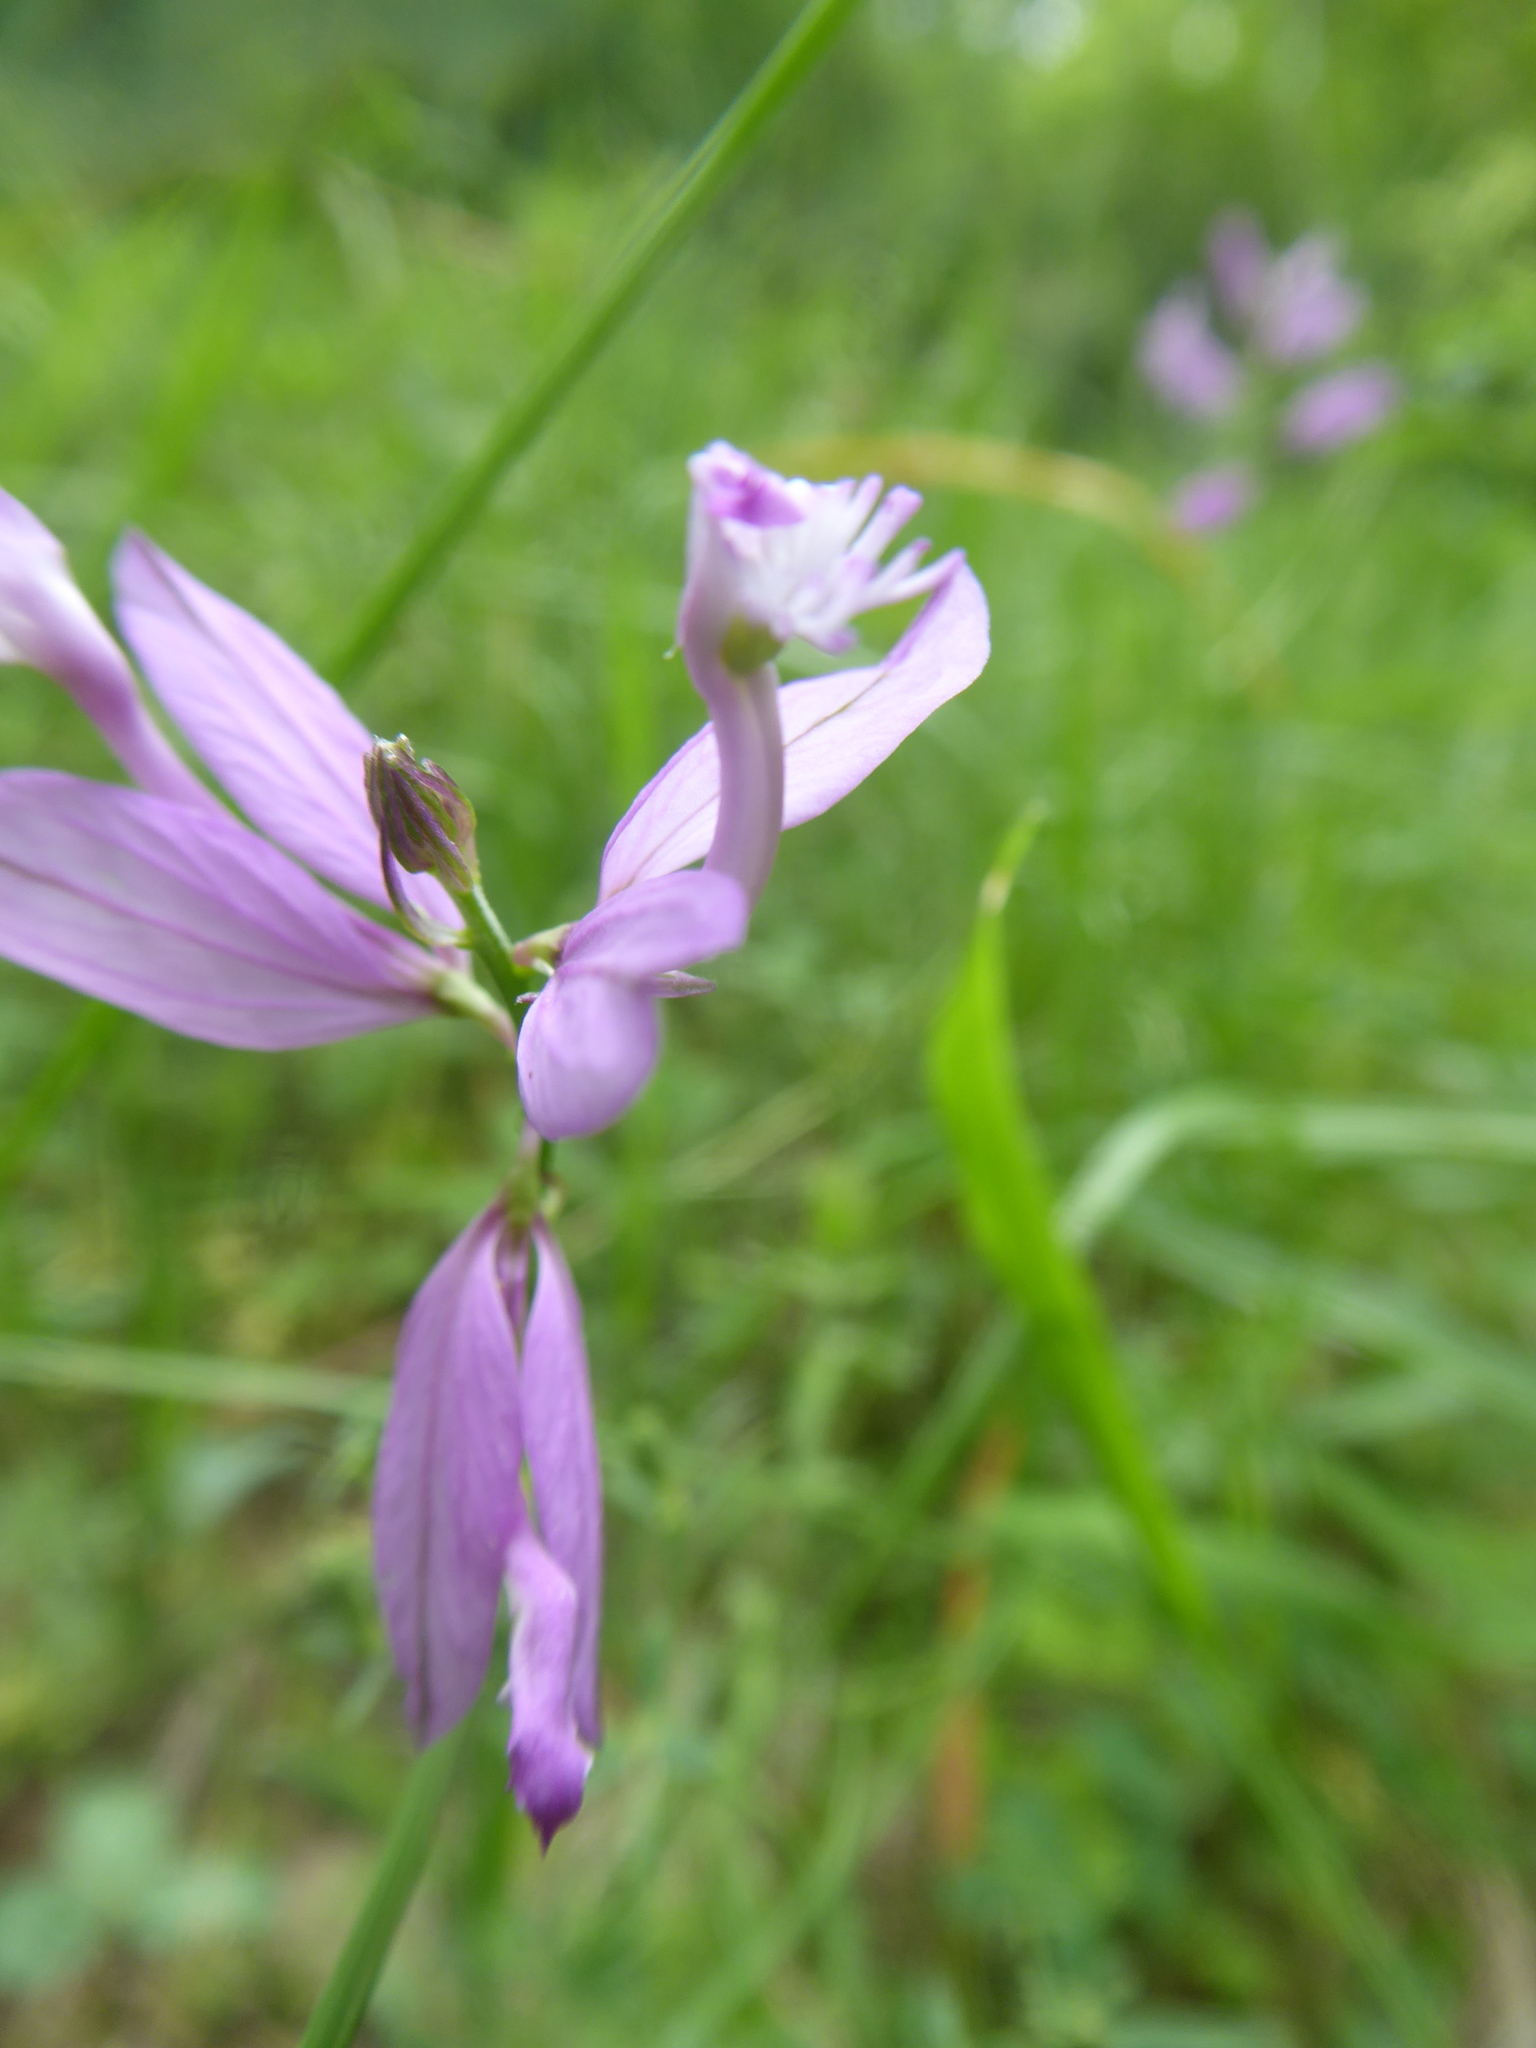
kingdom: Plantae
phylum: Tracheophyta
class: Magnoliopsida
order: Fabales
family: Polygalaceae
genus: Polygala
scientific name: Polygala major
